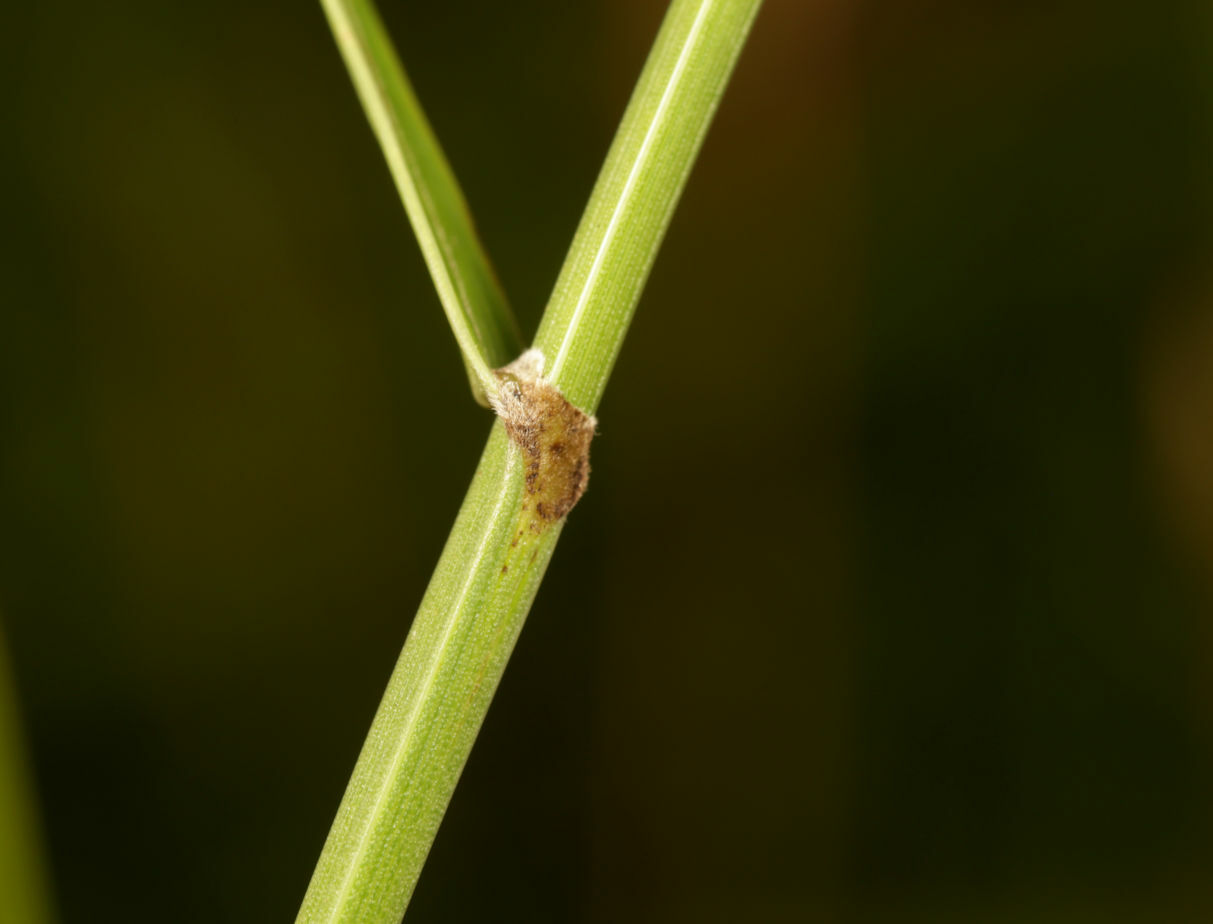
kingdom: Plantae
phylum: Tracheophyta
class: Liliopsida
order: Poales
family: Cyperaceae
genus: Fuirena
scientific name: Fuirena pubescens
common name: Hairy sedge
